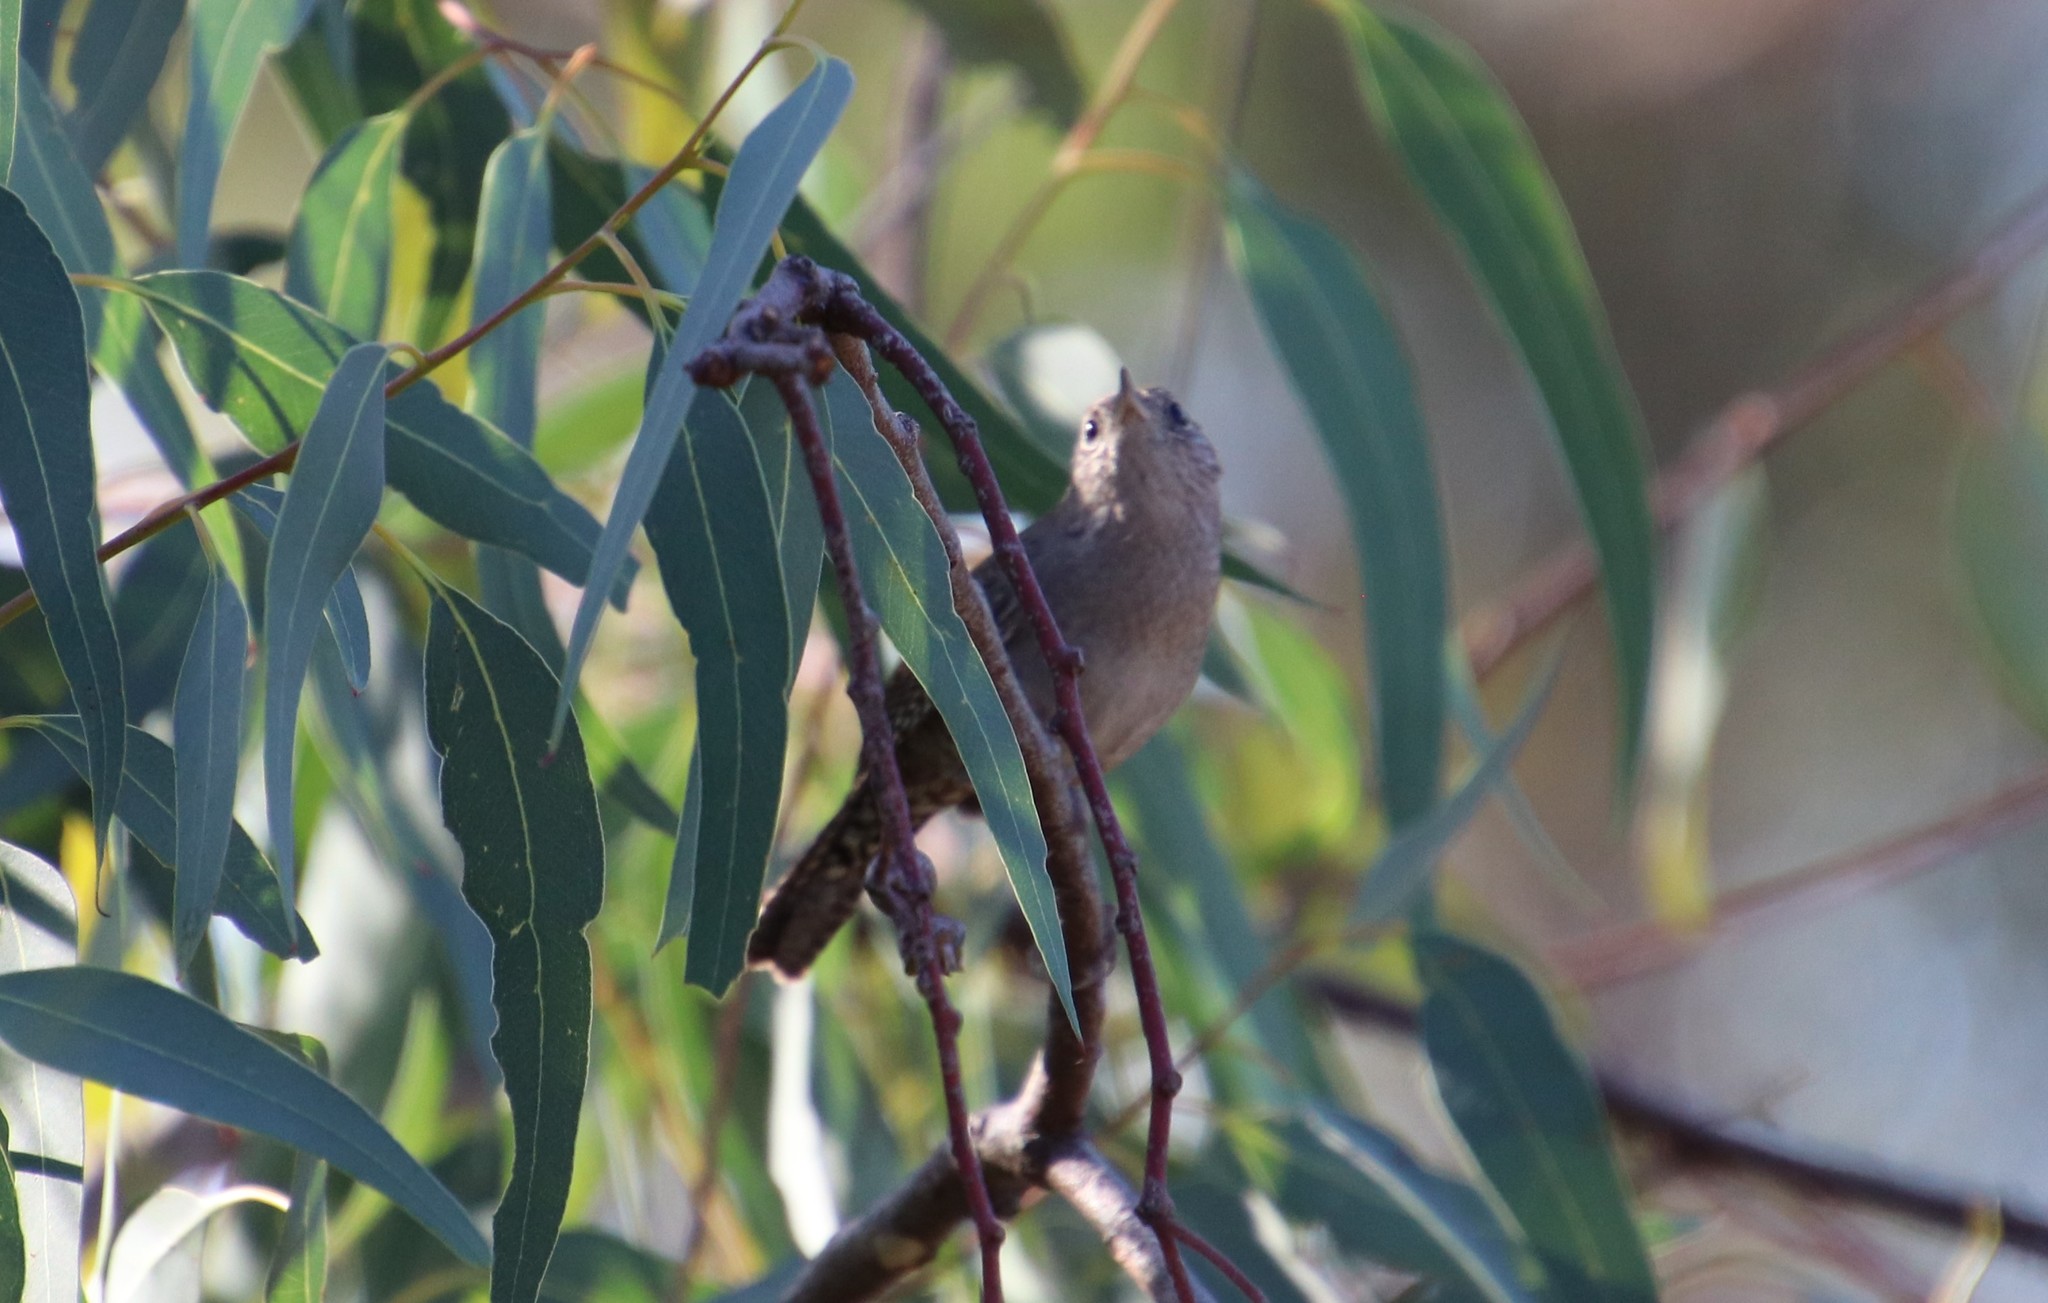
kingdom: Animalia
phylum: Chordata
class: Aves
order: Passeriformes
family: Troglodytidae
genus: Troglodytes
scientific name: Troglodytes aedon
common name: House wren
